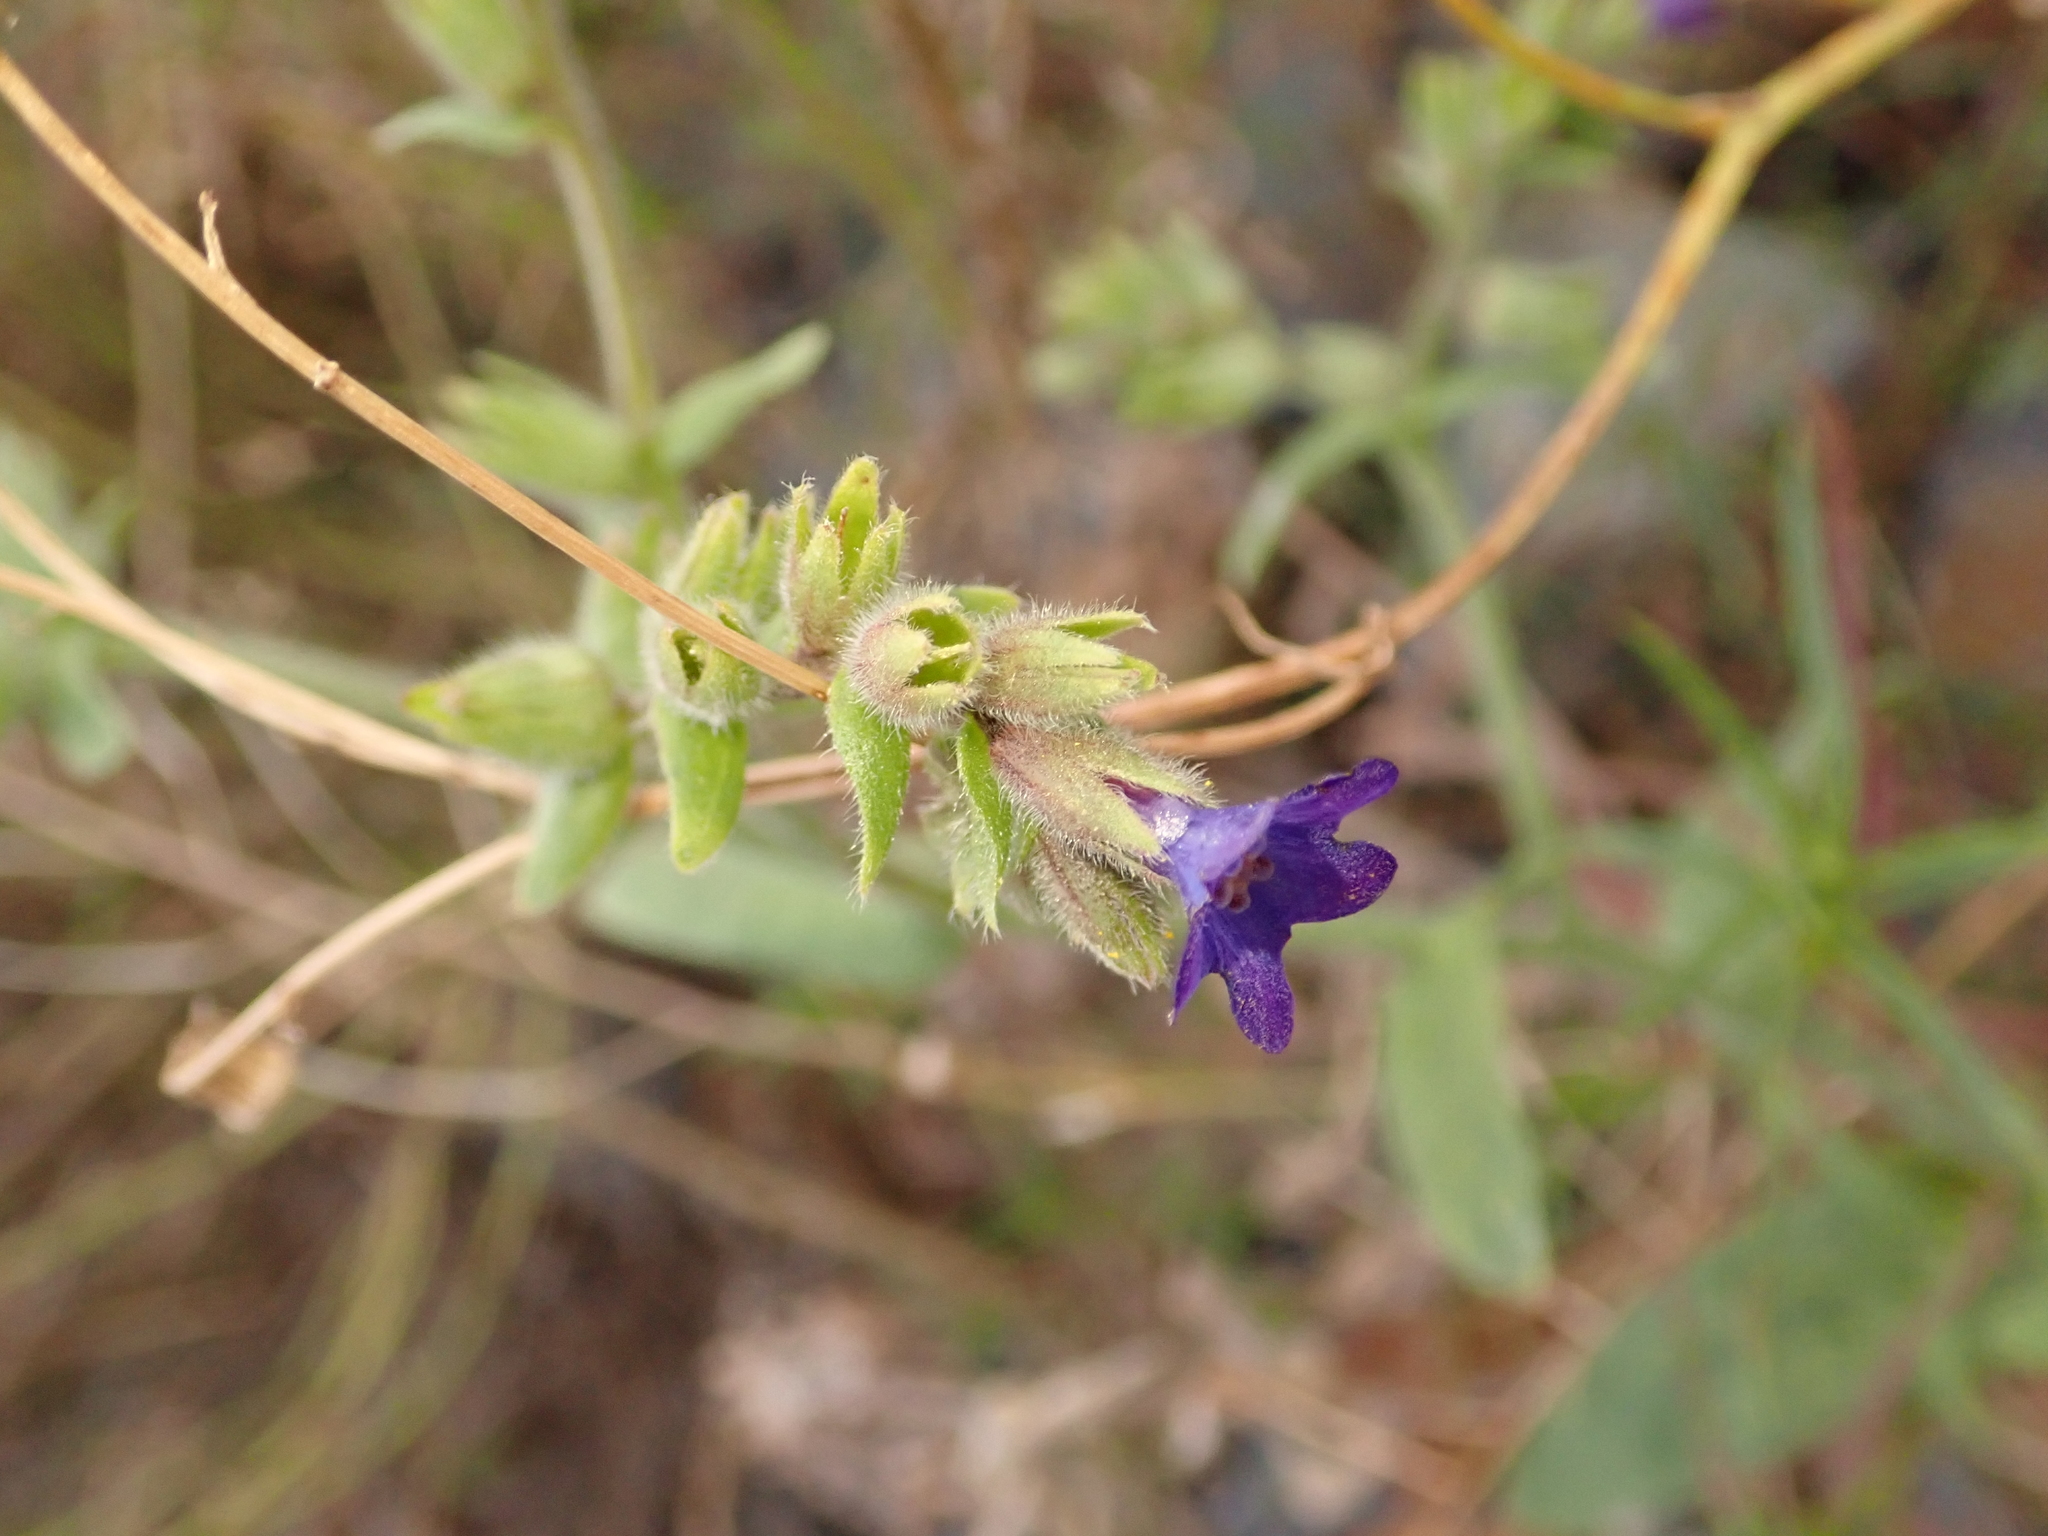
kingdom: Plantae
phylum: Tracheophyta
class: Magnoliopsida
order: Boraginales
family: Boraginaceae
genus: Anchusa
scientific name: Anchusa officinalis
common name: Alkanet
